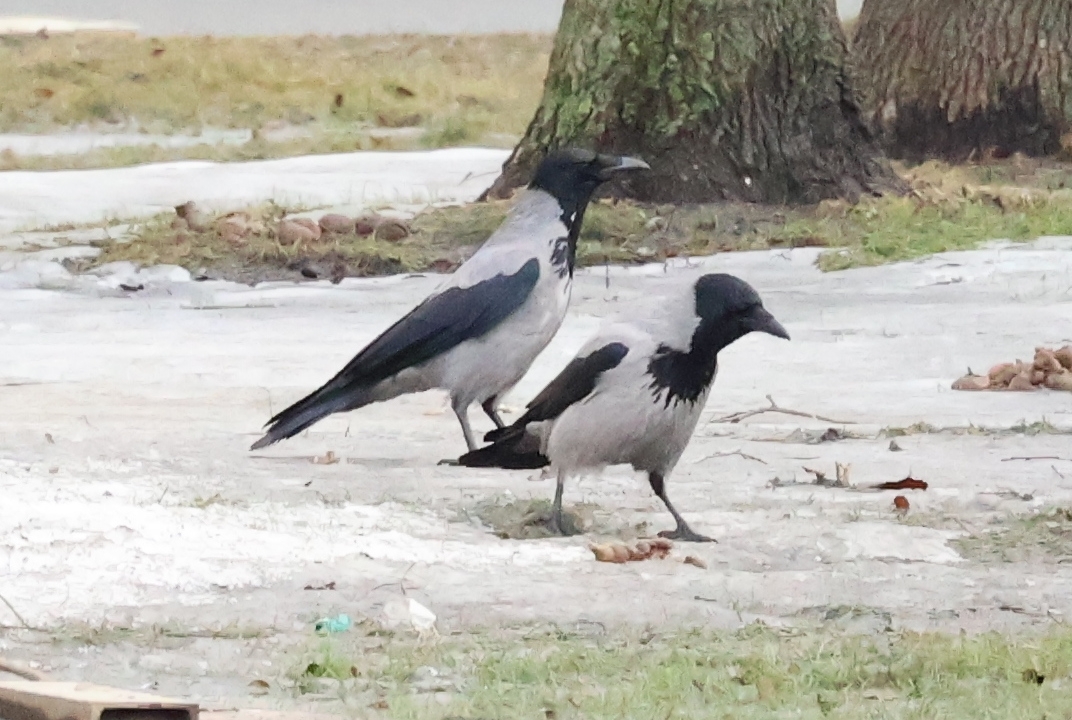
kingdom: Animalia
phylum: Chordata
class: Aves
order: Passeriformes
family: Corvidae
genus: Corvus
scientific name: Corvus cornix
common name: Hooded crow
